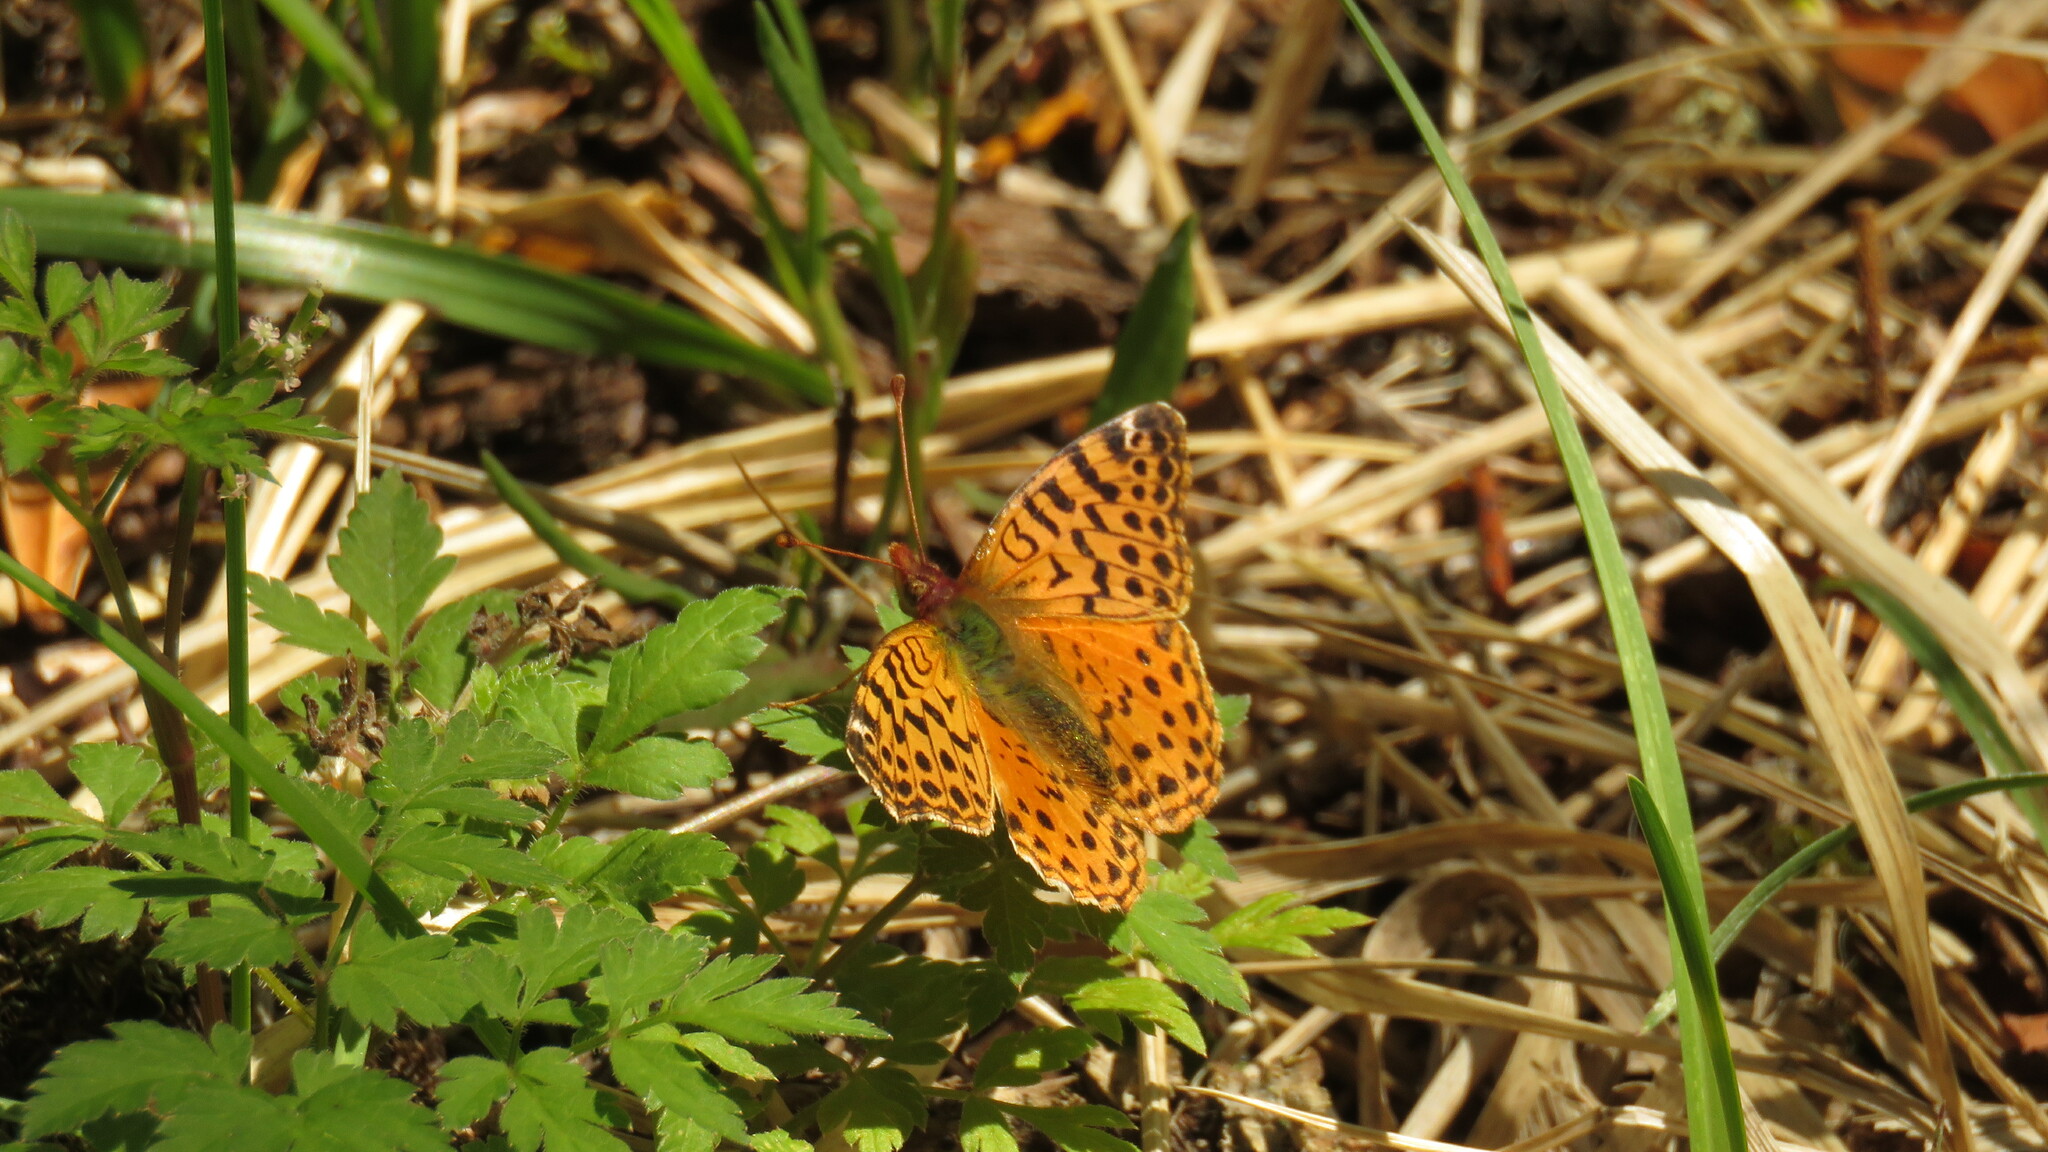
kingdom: Animalia
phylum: Arthropoda
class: Insecta
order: Lepidoptera
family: Nymphalidae
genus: Issoria
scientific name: Issoria Yramea cytheris
